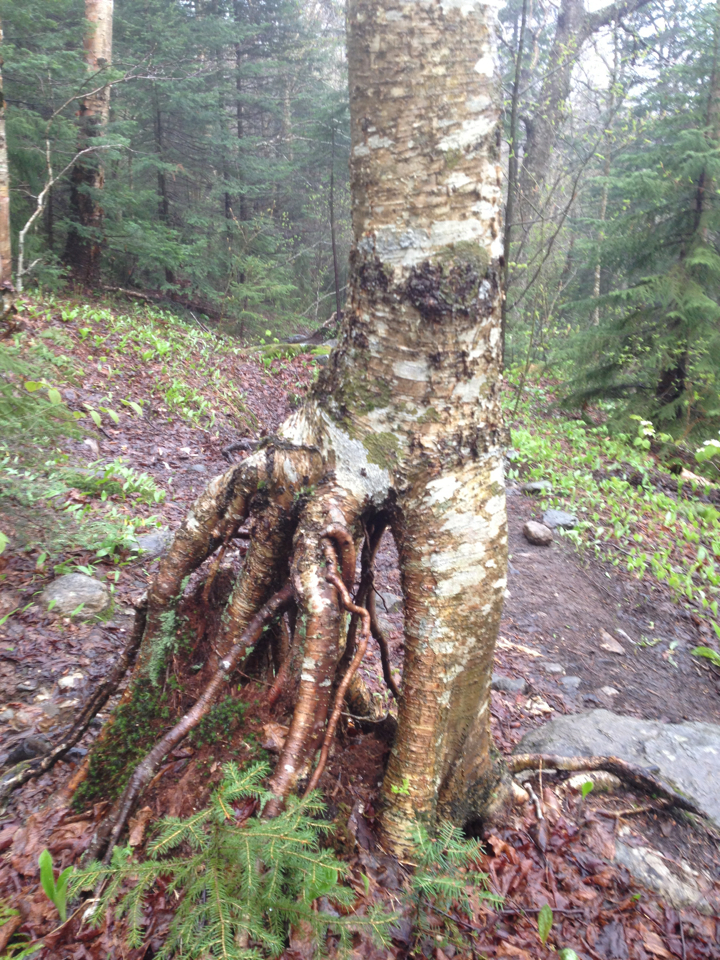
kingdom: Plantae
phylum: Tracheophyta
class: Magnoliopsida
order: Fagales
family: Betulaceae
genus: Betula
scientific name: Betula alleghaniensis
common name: Yellow birch
